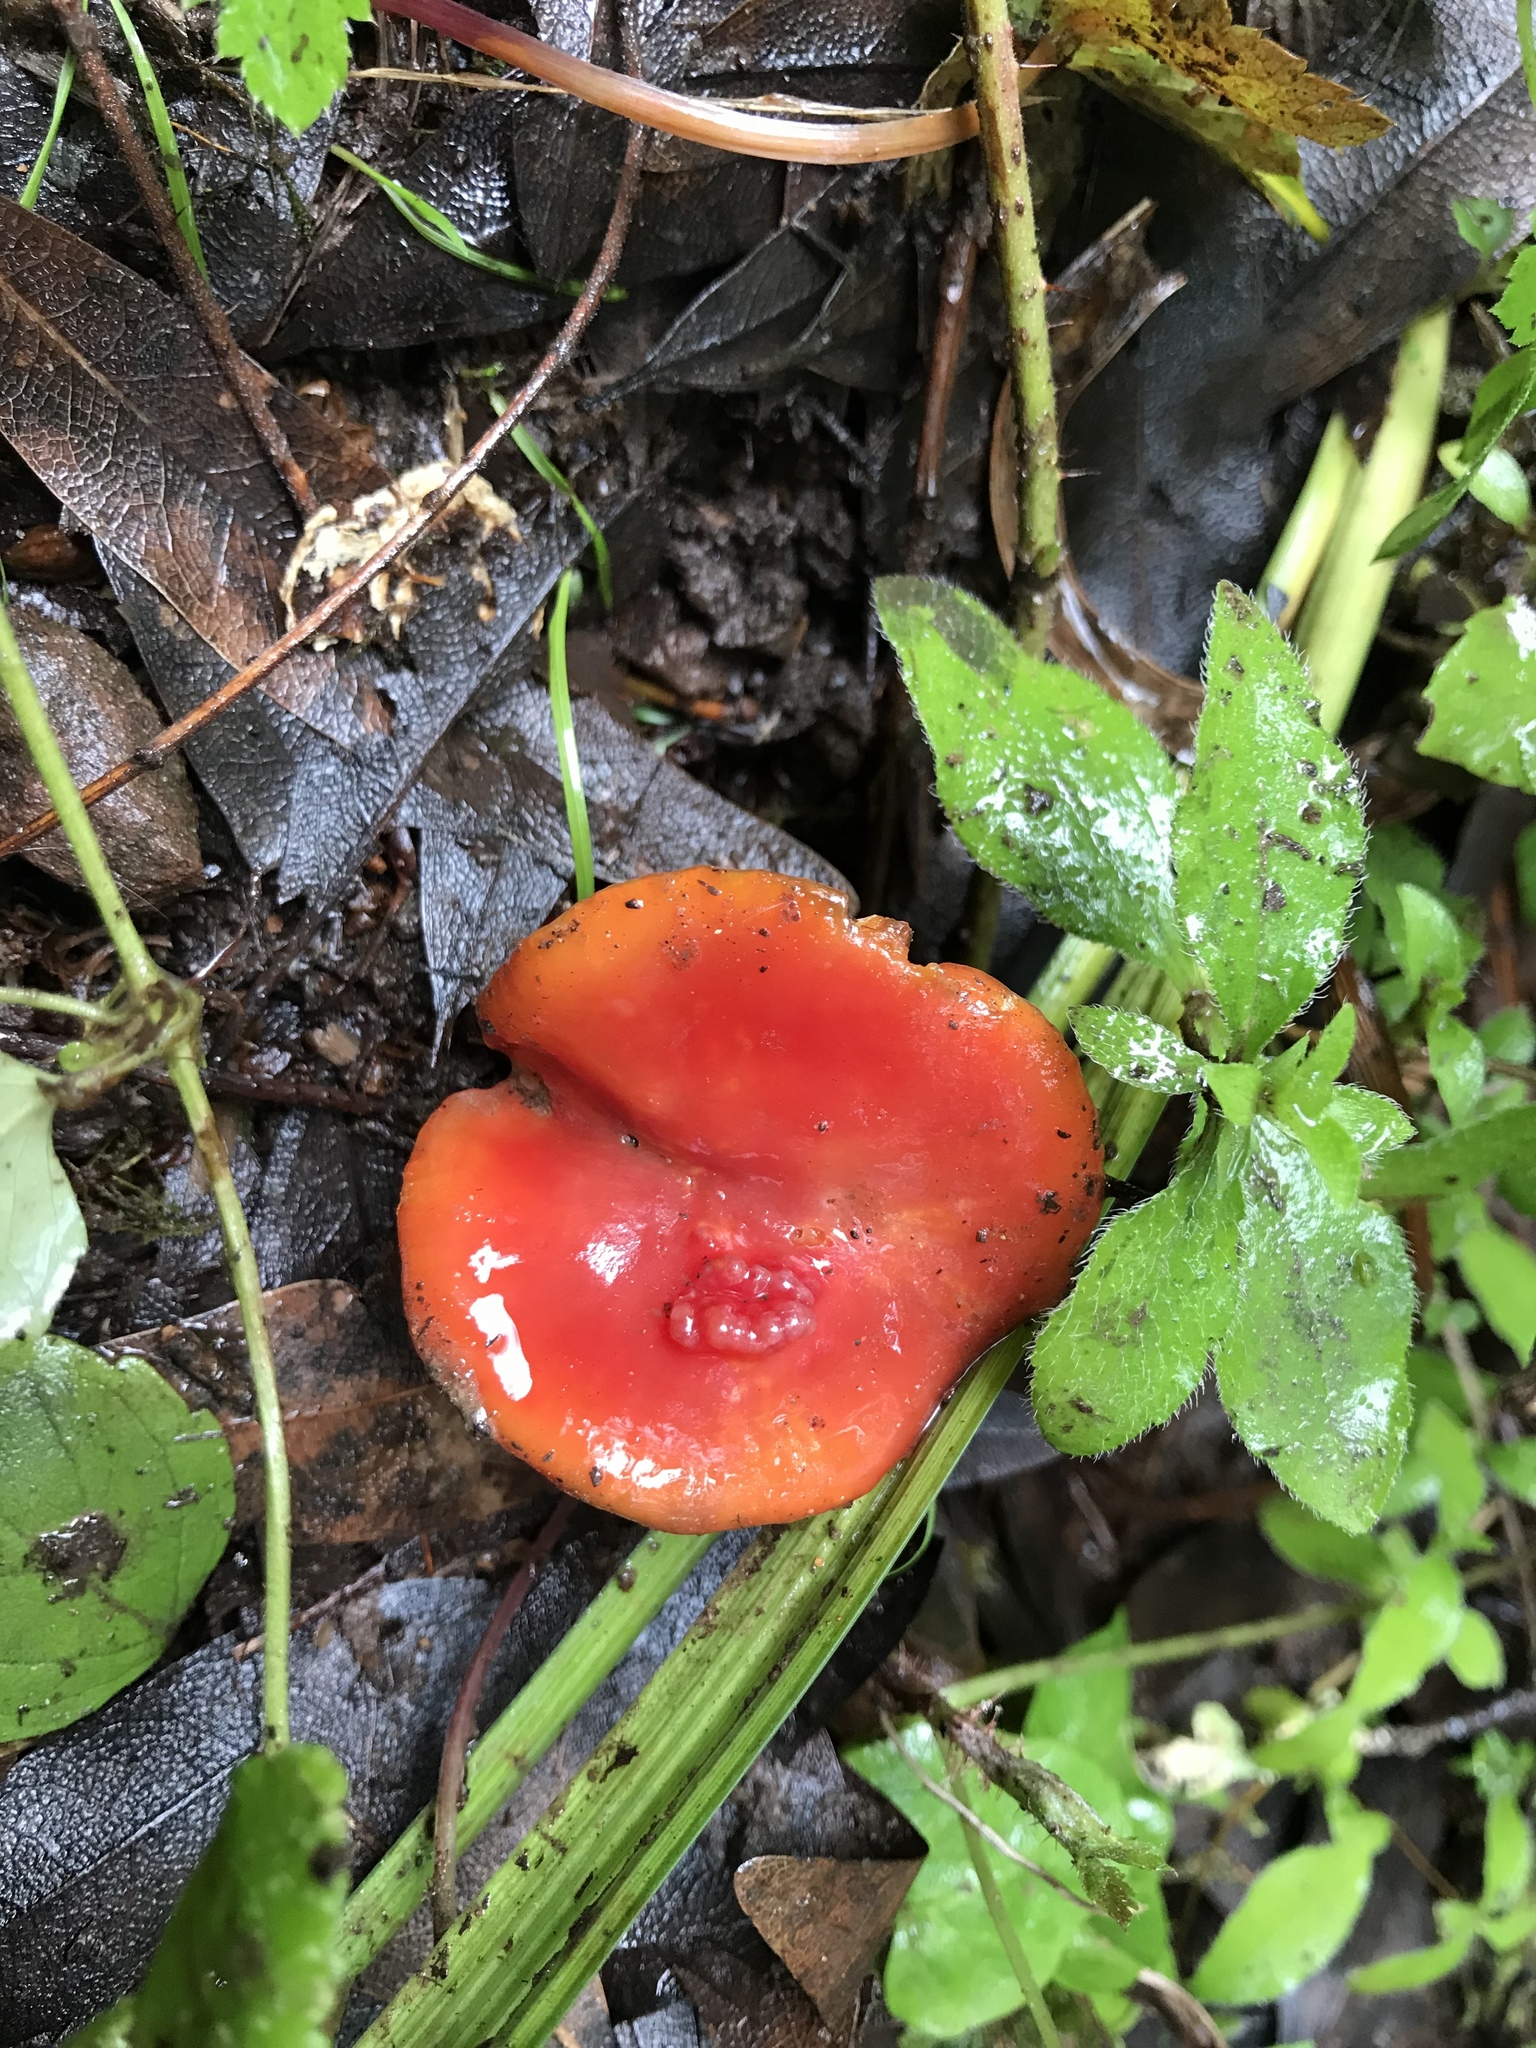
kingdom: Fungi
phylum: Basidiomycota
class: Agaricomycetes
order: Agaricales
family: Hygrophoraceae
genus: Hygrocybe
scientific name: Hygrocybe coccinea
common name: Scarlet hood
